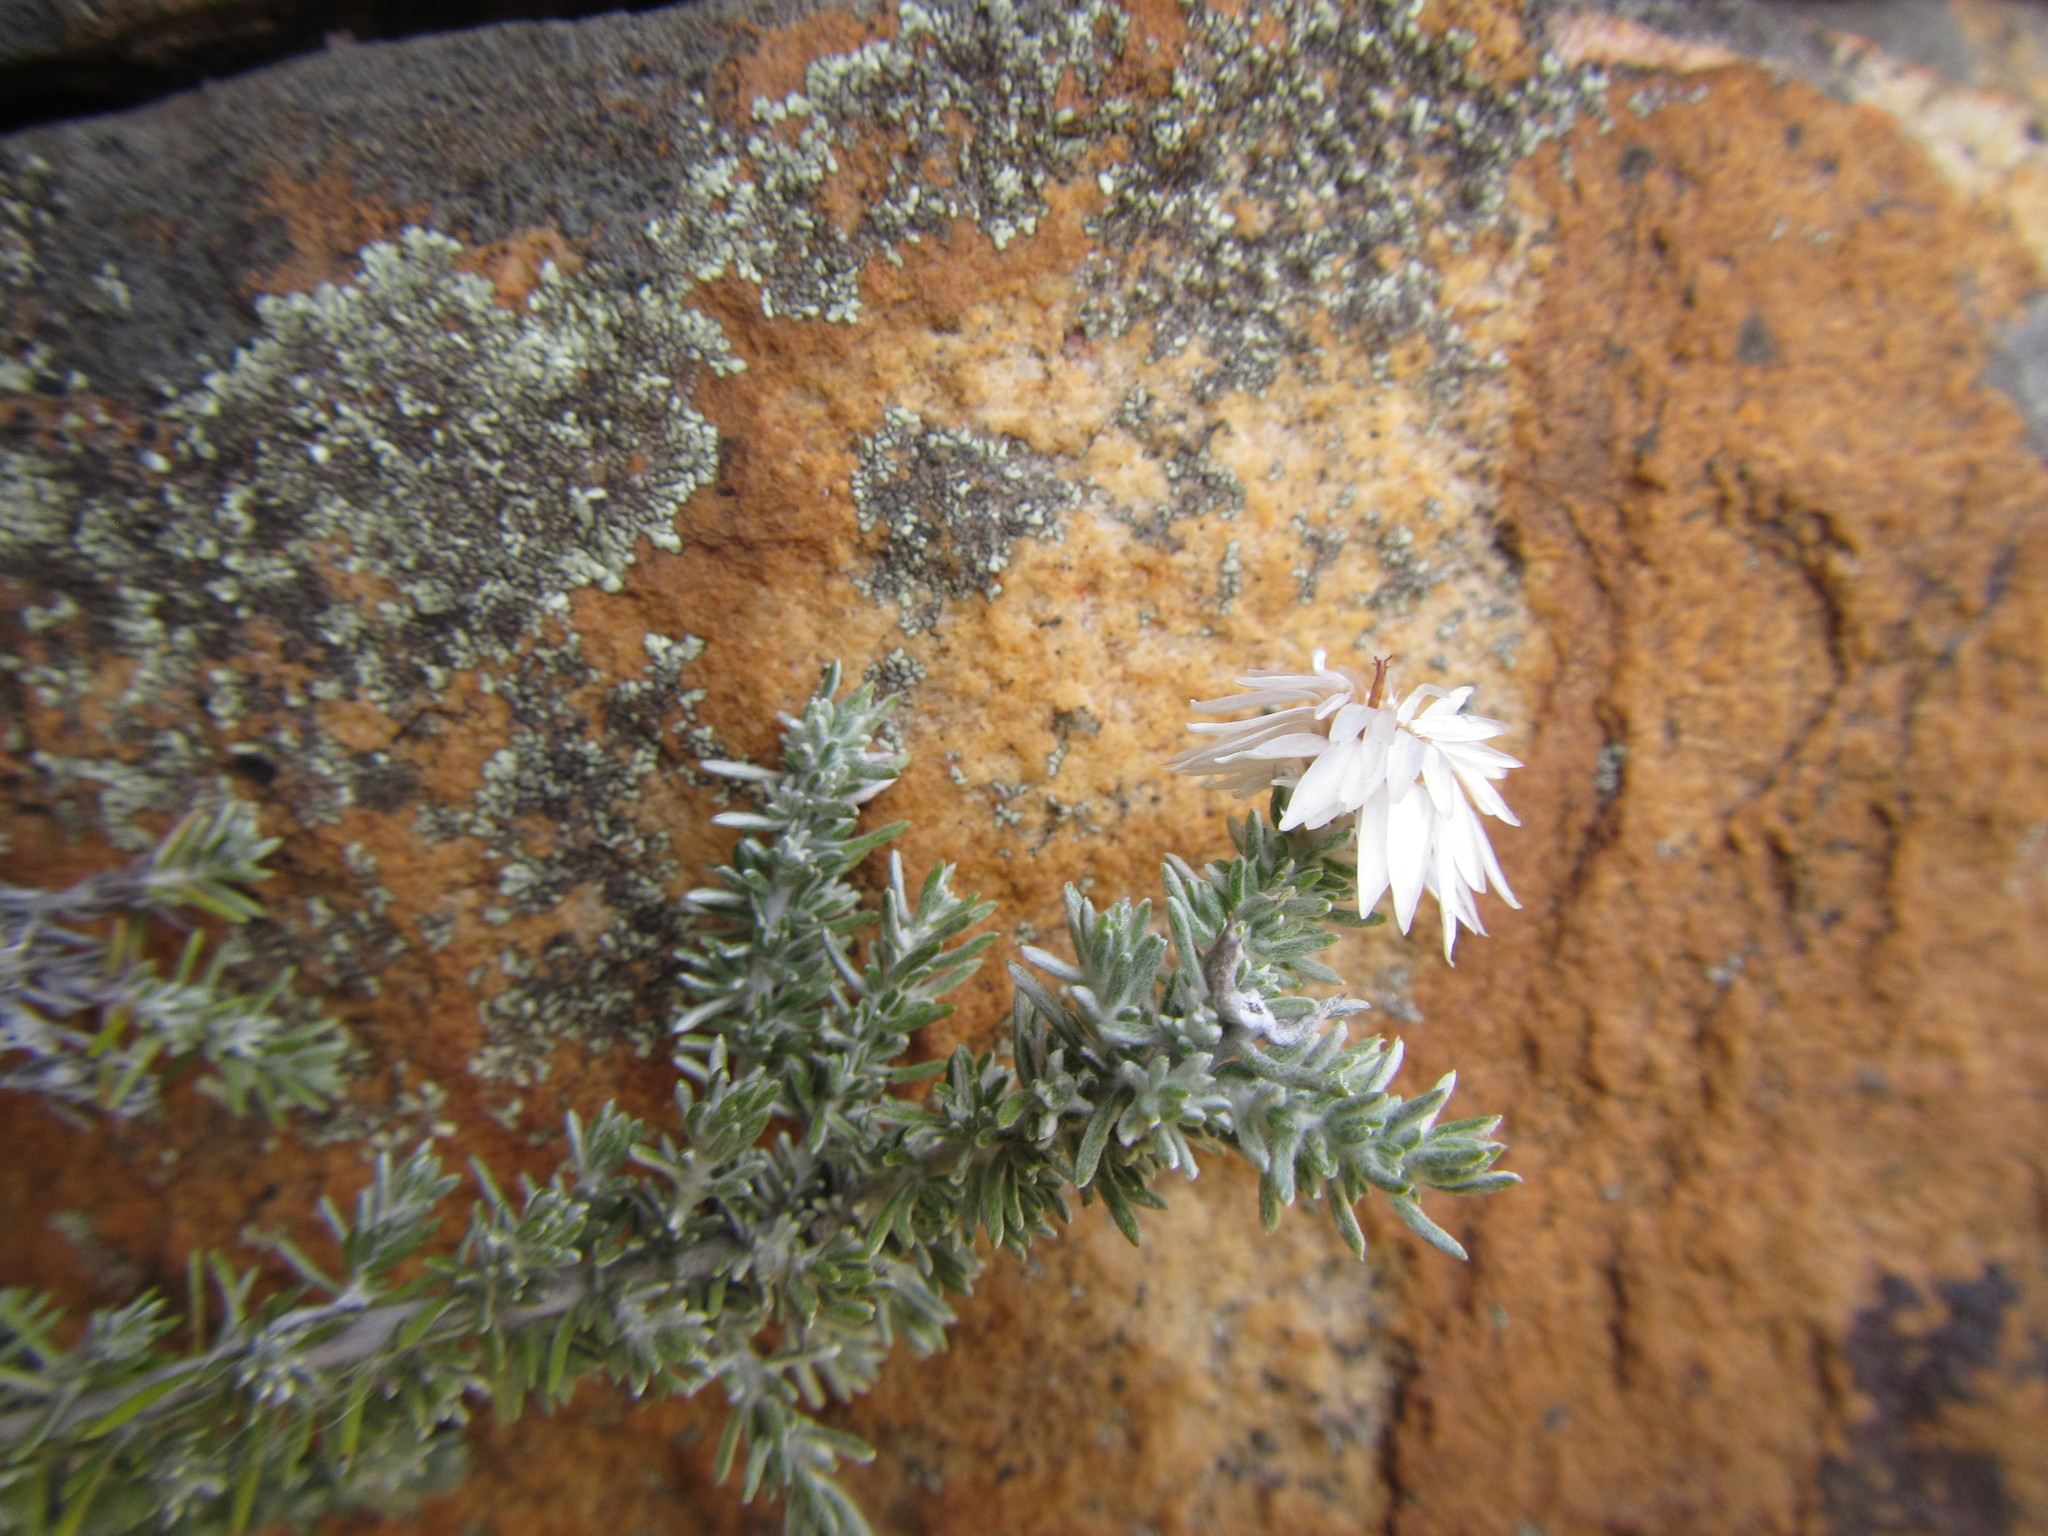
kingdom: Plantae
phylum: Tracheophyta
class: Magnoliopsida
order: Asterales
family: Asteraceae
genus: Hydroidea
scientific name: Hydroidea elsiae
